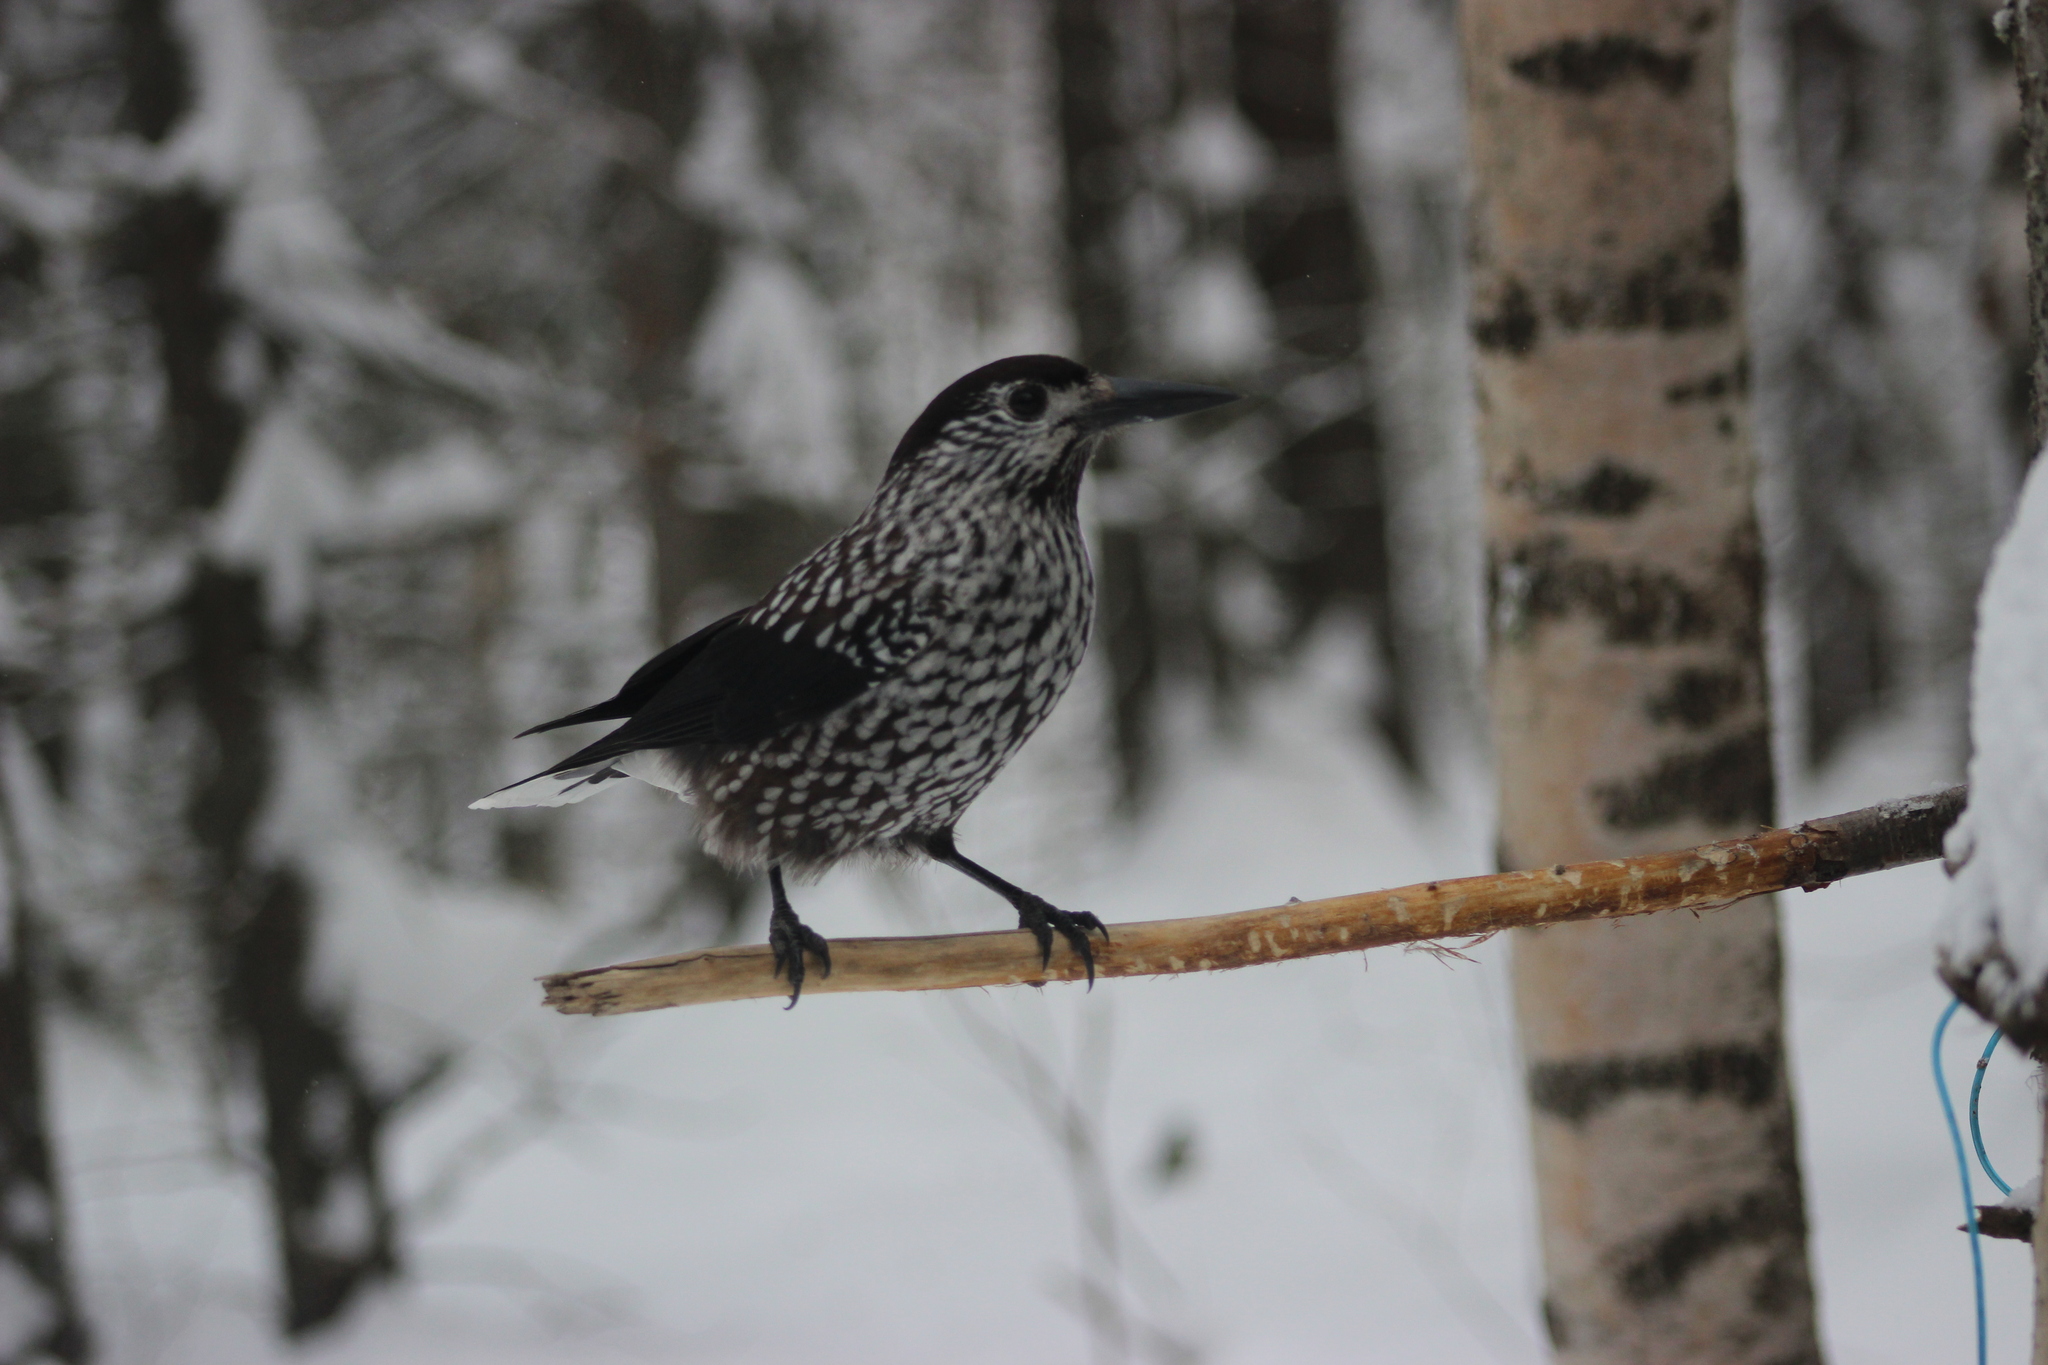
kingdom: Animalia
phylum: Chordata
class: Aves
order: Passeriformes
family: Corvidae
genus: Nucifraga
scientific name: Nucifraga caryocatactes
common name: Spotted nutcracker
